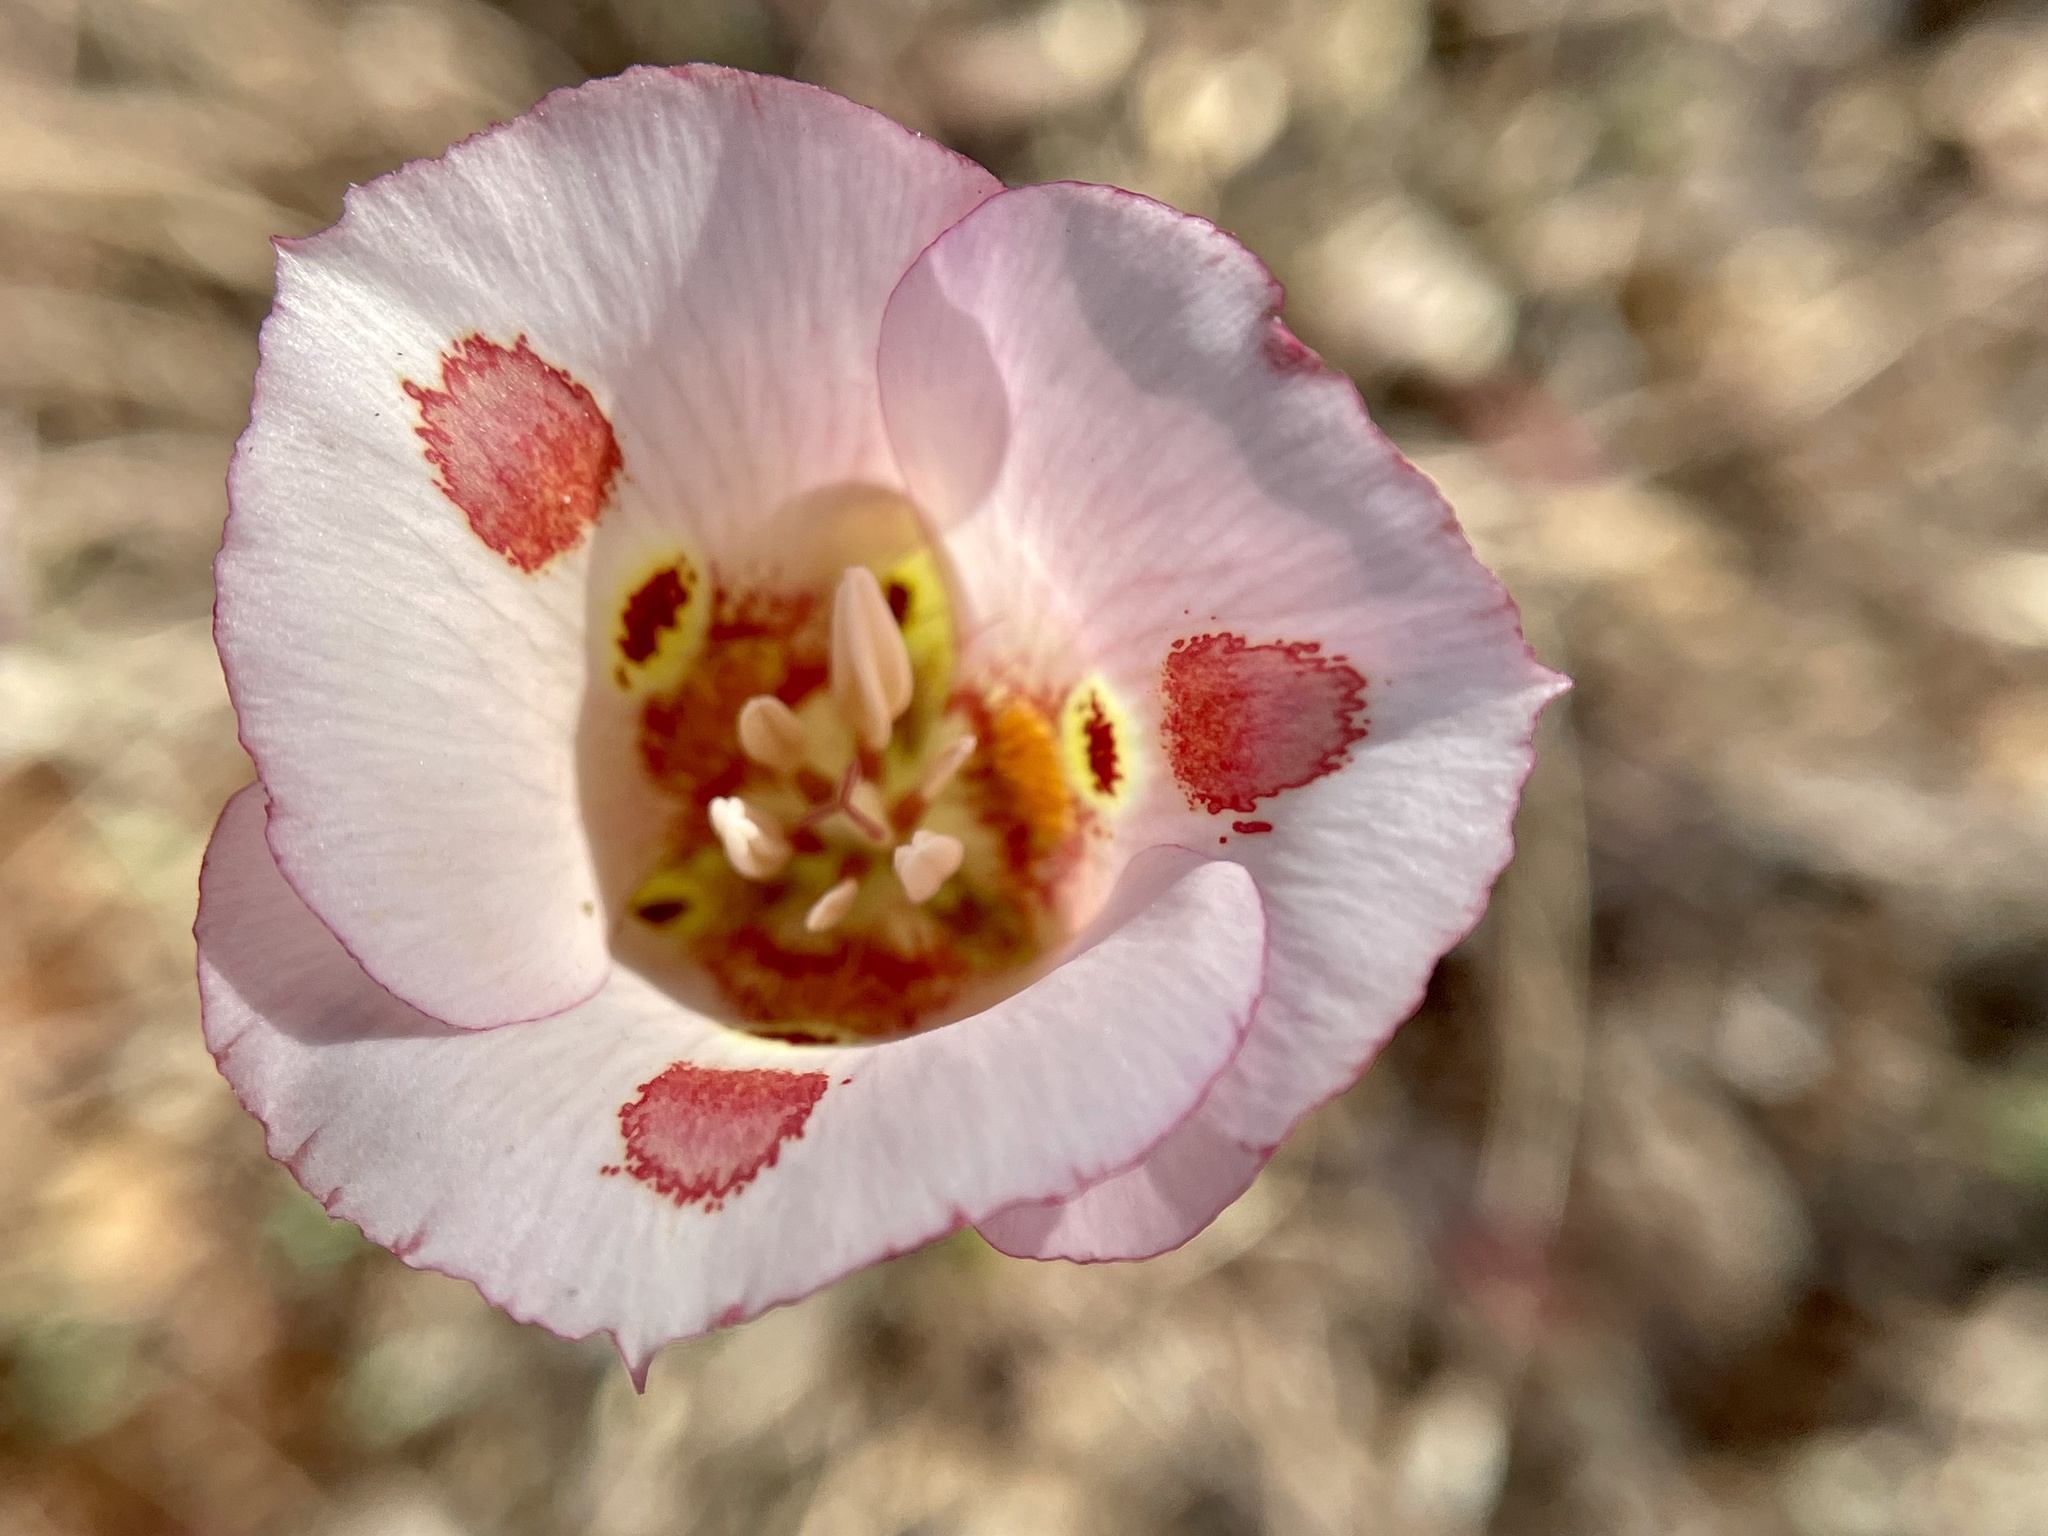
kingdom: Plantae
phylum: Tracheophyta
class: Liliopsida
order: Liliales
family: Liliaceae
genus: Calochortus
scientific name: Calochortus venustus
